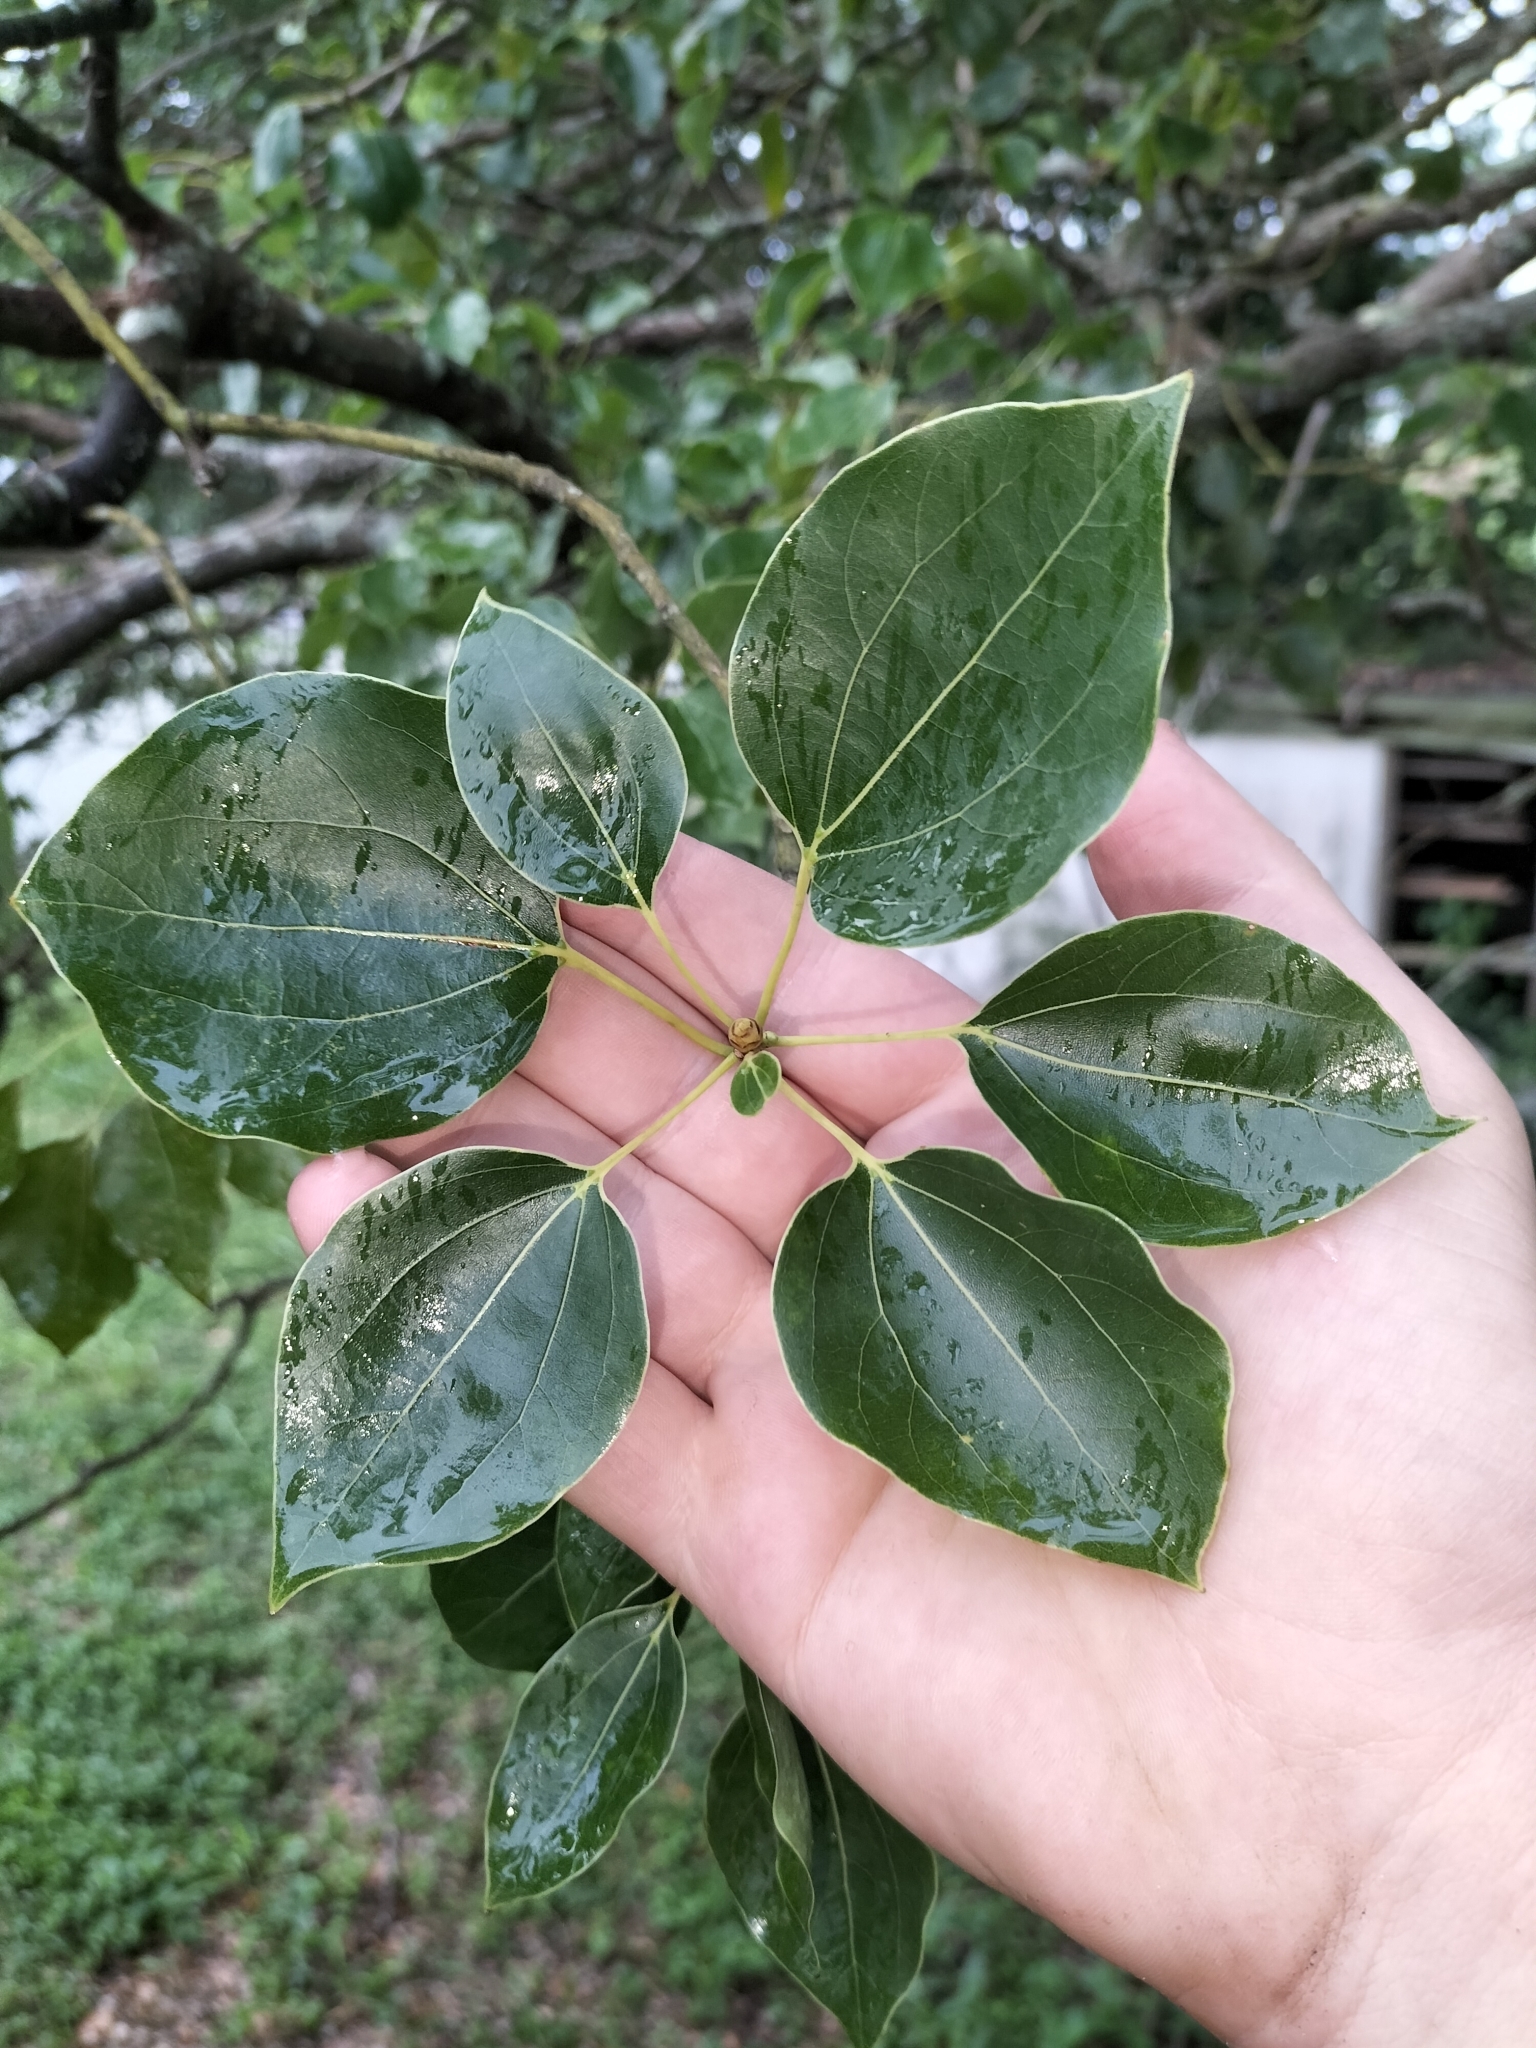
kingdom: Plantae
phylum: Tracheophyta
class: Magnoliopsida
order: Laurales
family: Lauraceae
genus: Cinnamomum
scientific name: Cinnamomum camphora
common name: Camphortree
